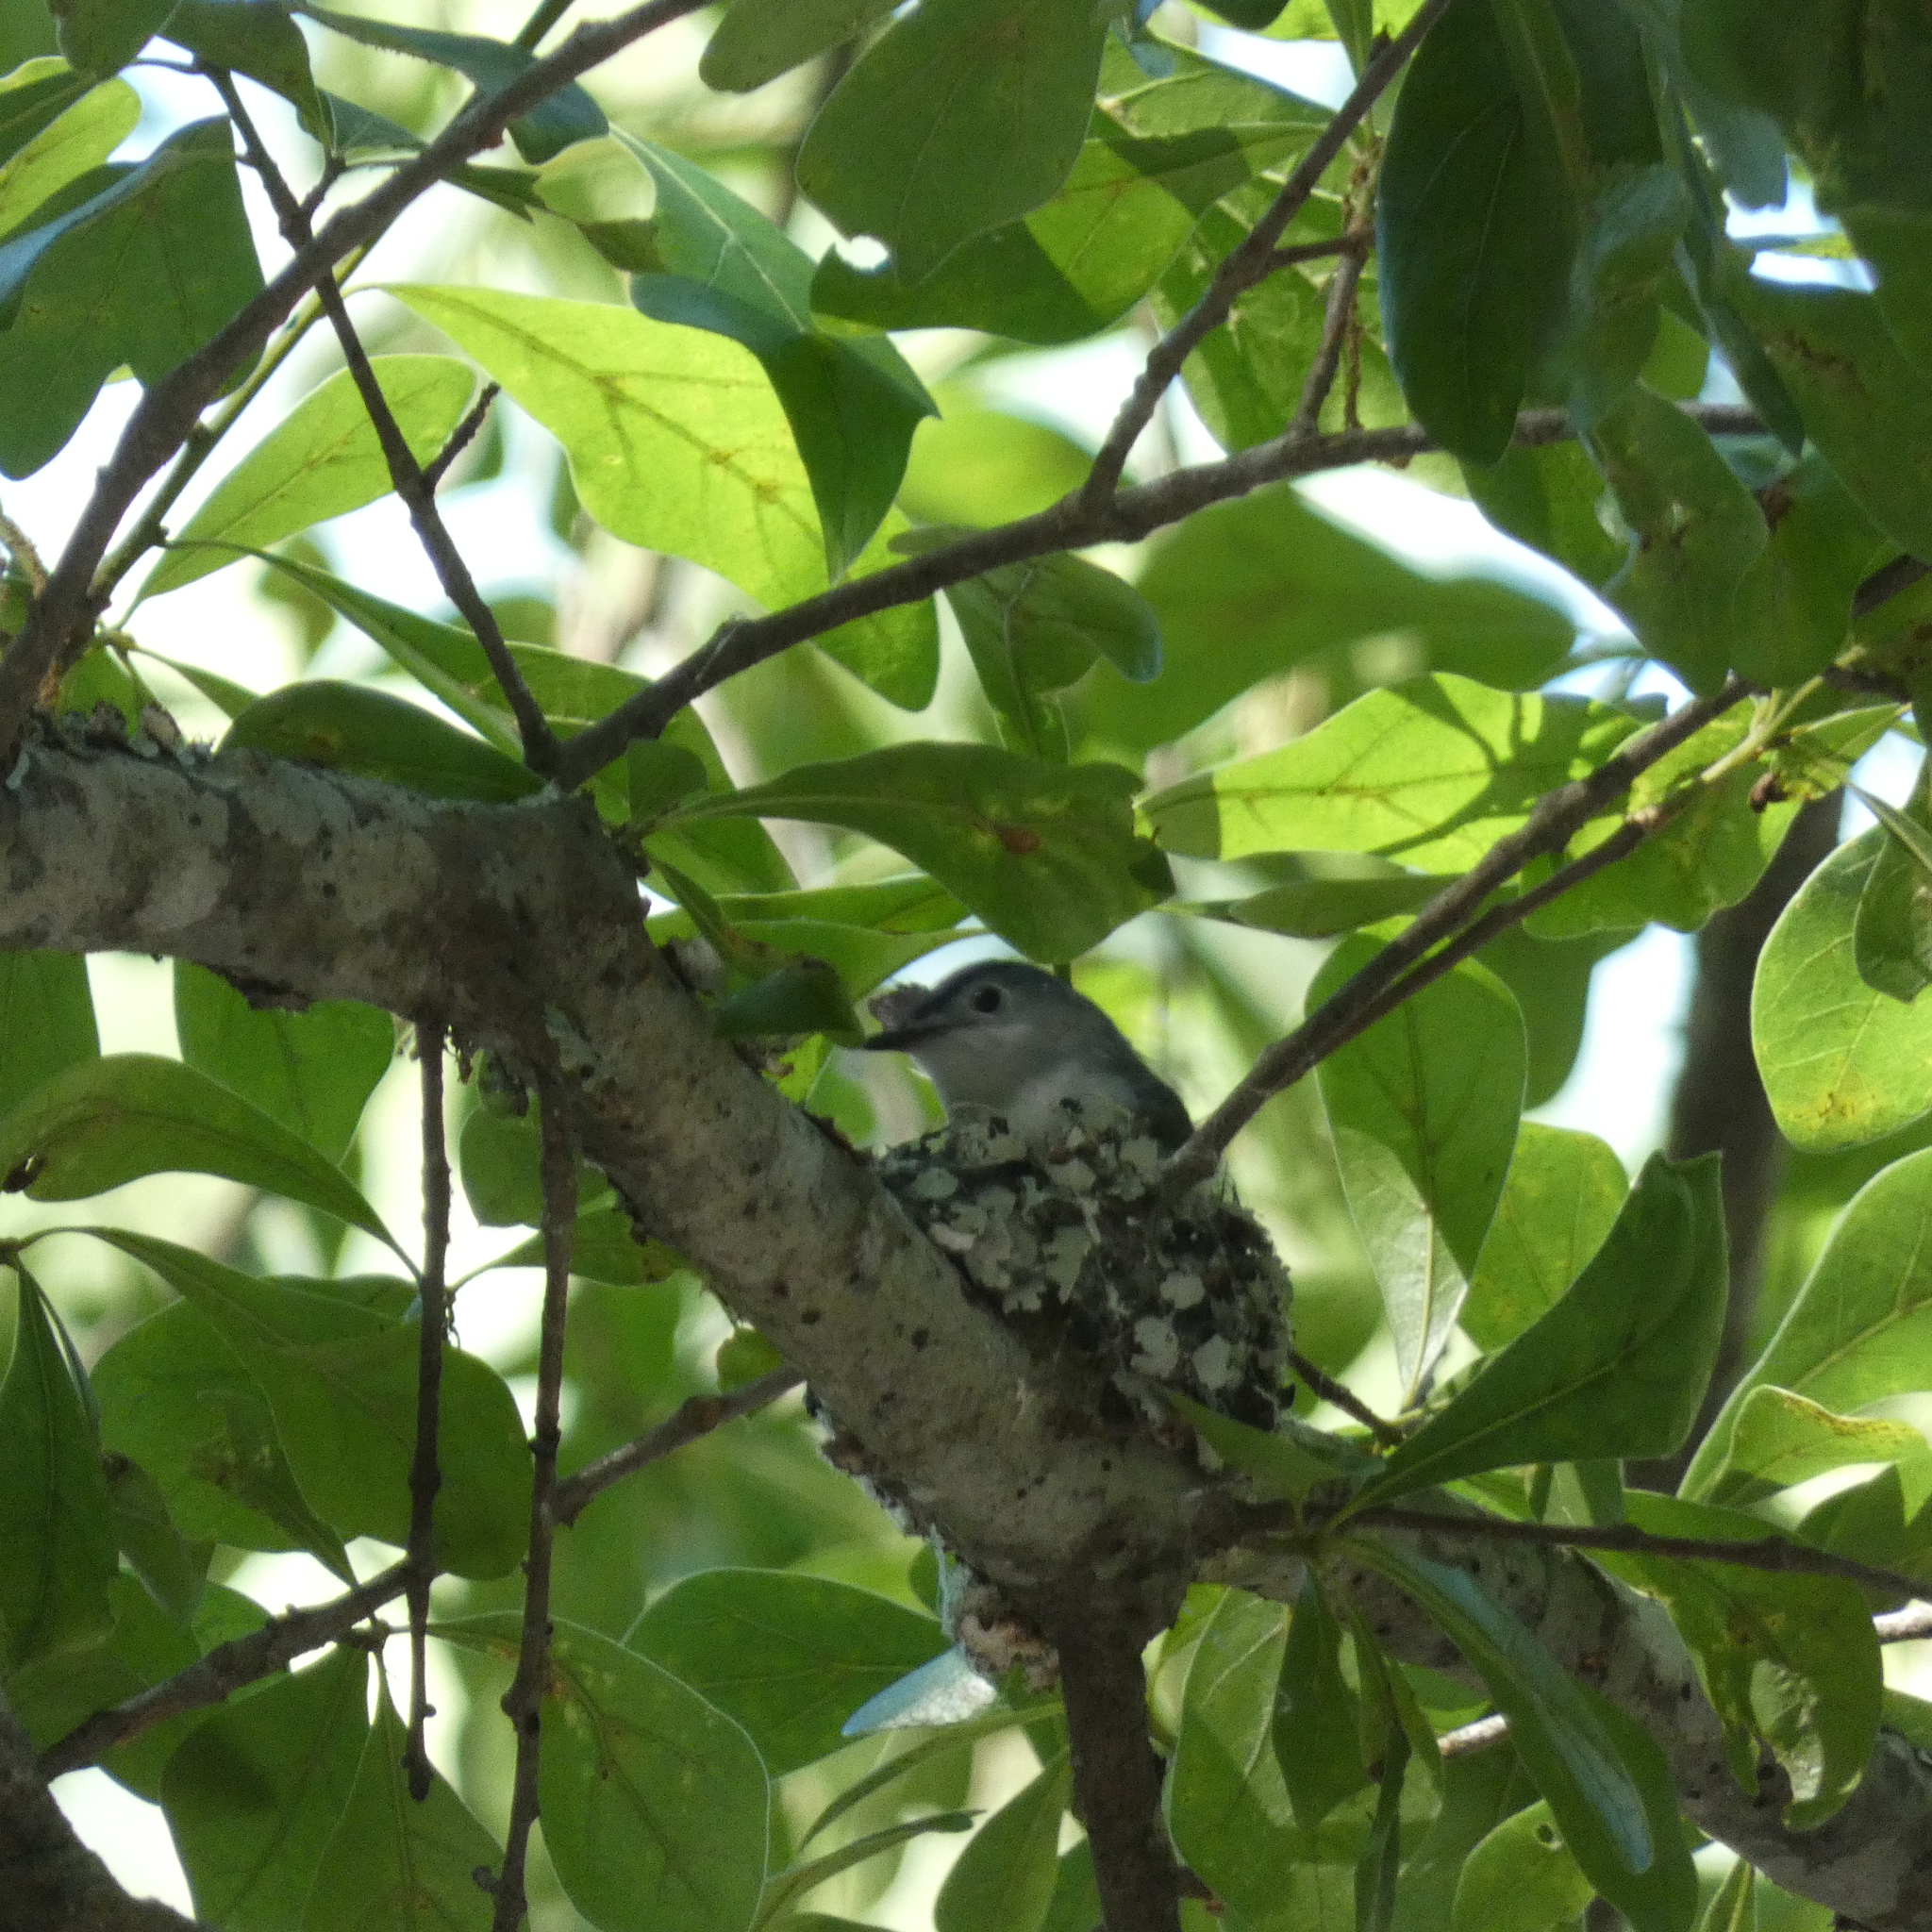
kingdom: Animalia
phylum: Chordata
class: Aves
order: Passeriformes
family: Polioptilidae
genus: Polioptila
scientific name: Polioptila caerulea
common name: Blue-gray gnatcatcher
